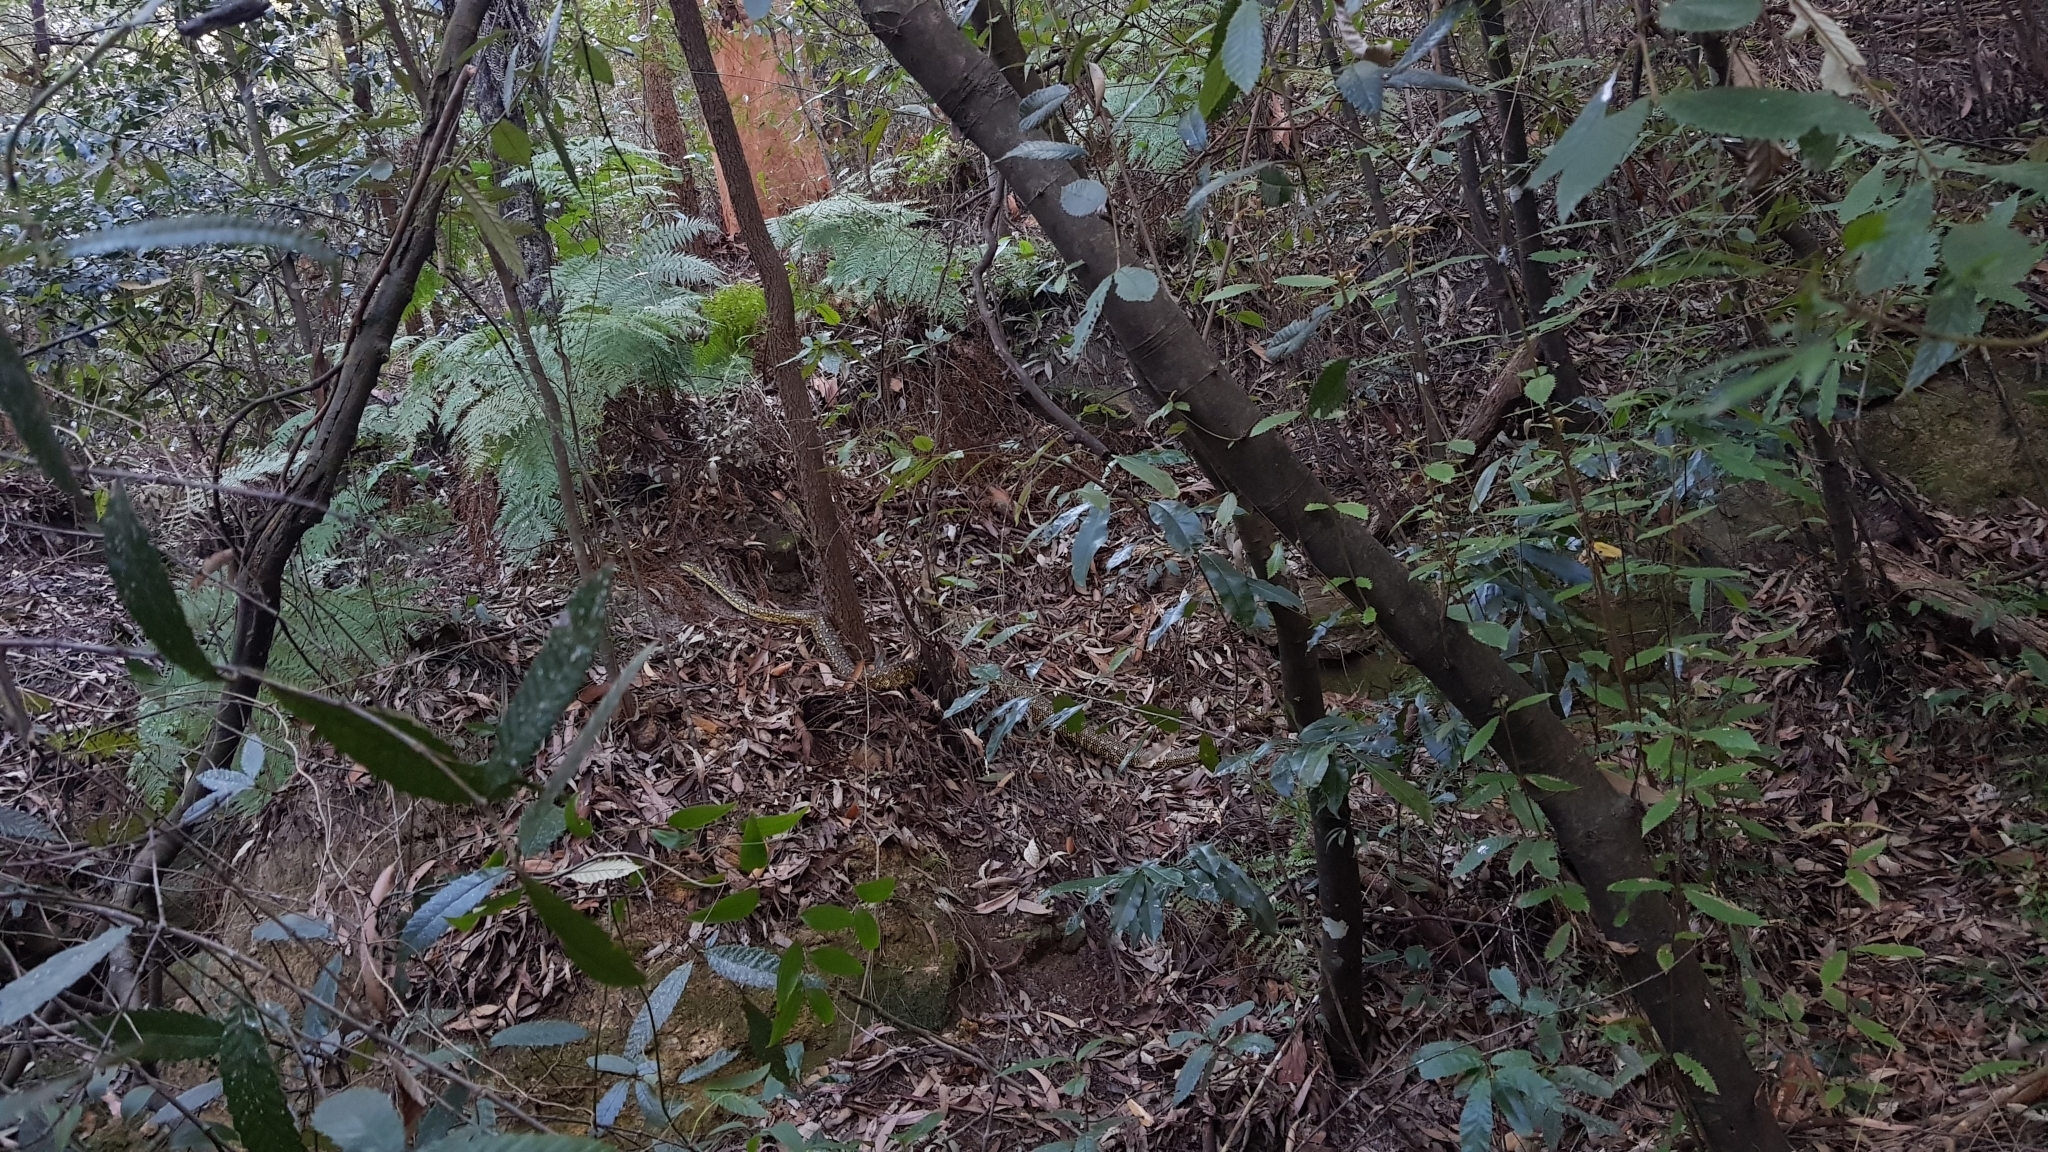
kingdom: Animalia
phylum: Chordata
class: Squamata
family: Pythonidae
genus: Morelia
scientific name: Morelia spilota
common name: Carpet python
